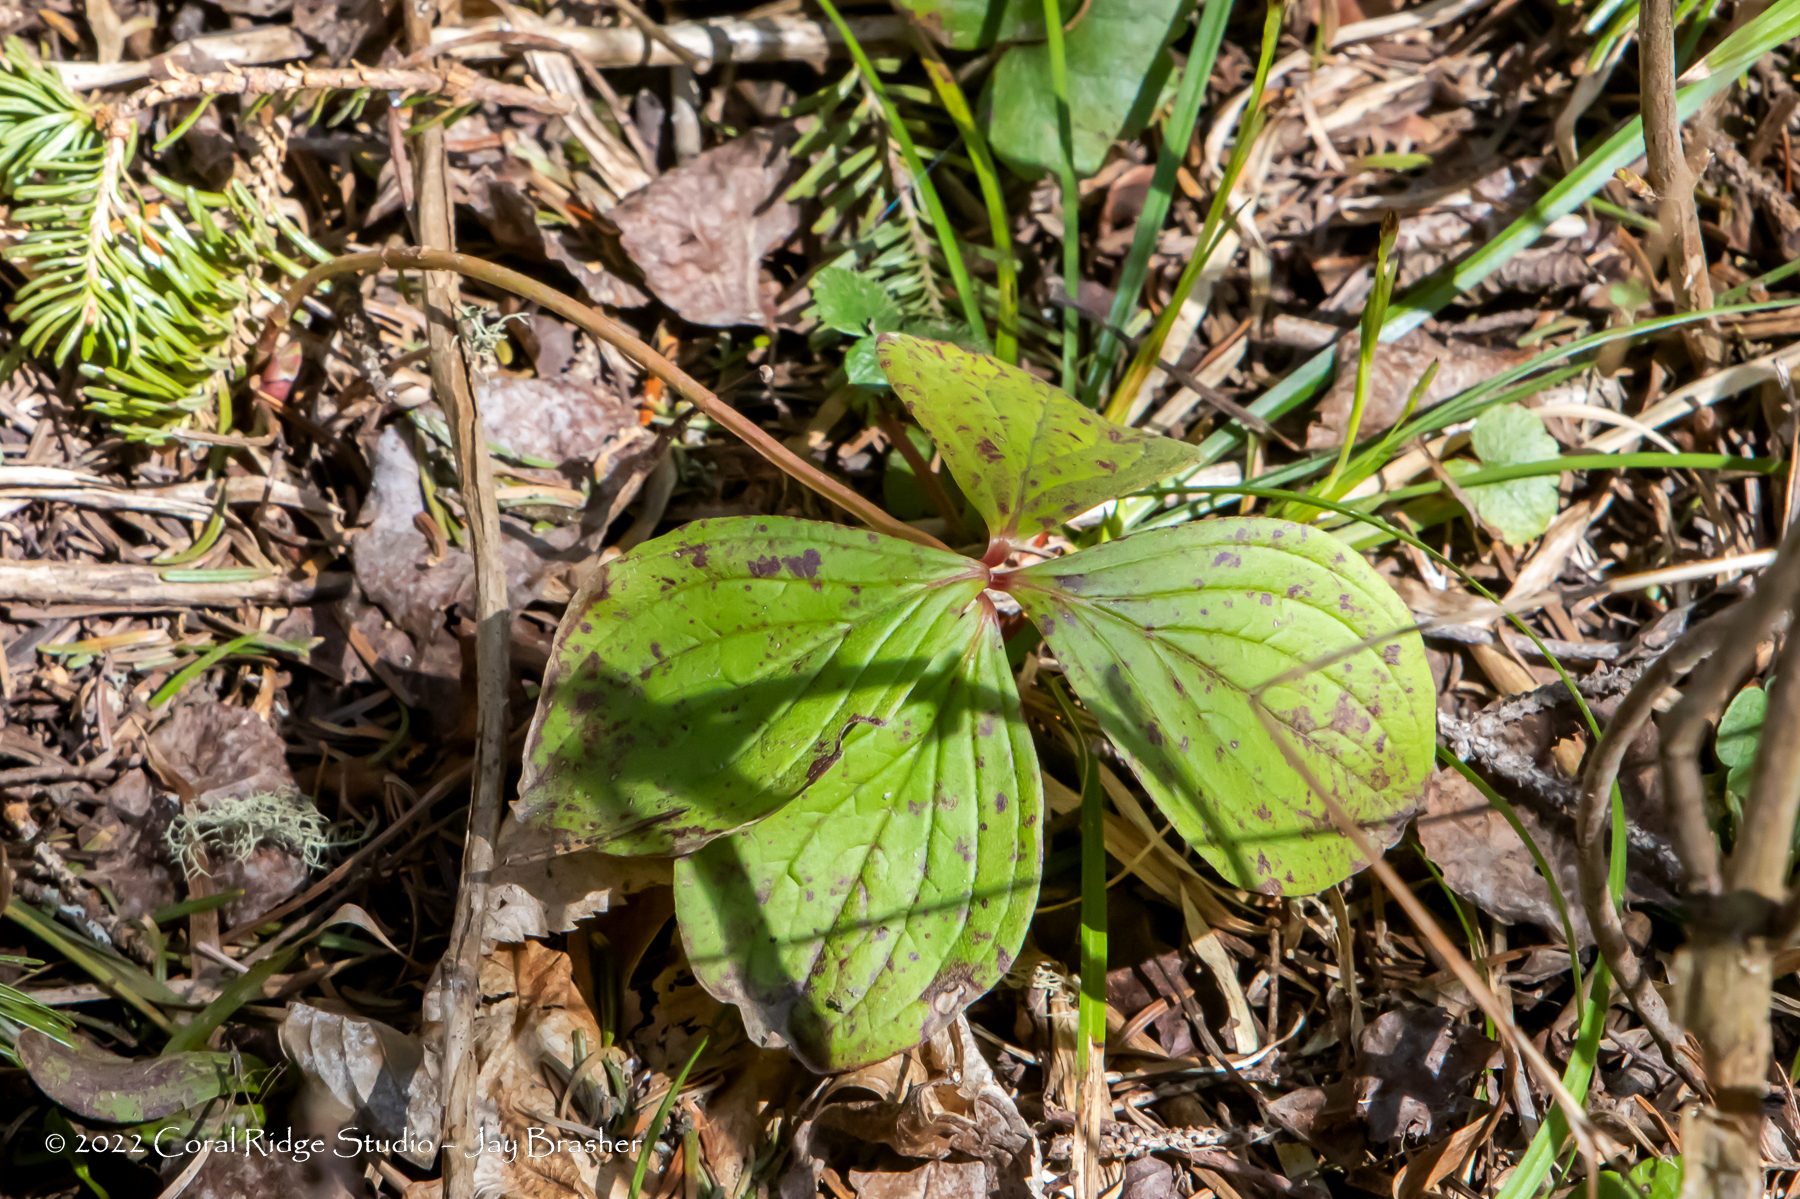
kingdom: Plantae
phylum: Tracheophyta
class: Magnoliopsida
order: Cornales
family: Cornaceae
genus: Cornus
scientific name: Cornus canadensis
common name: Creeping dogwood
